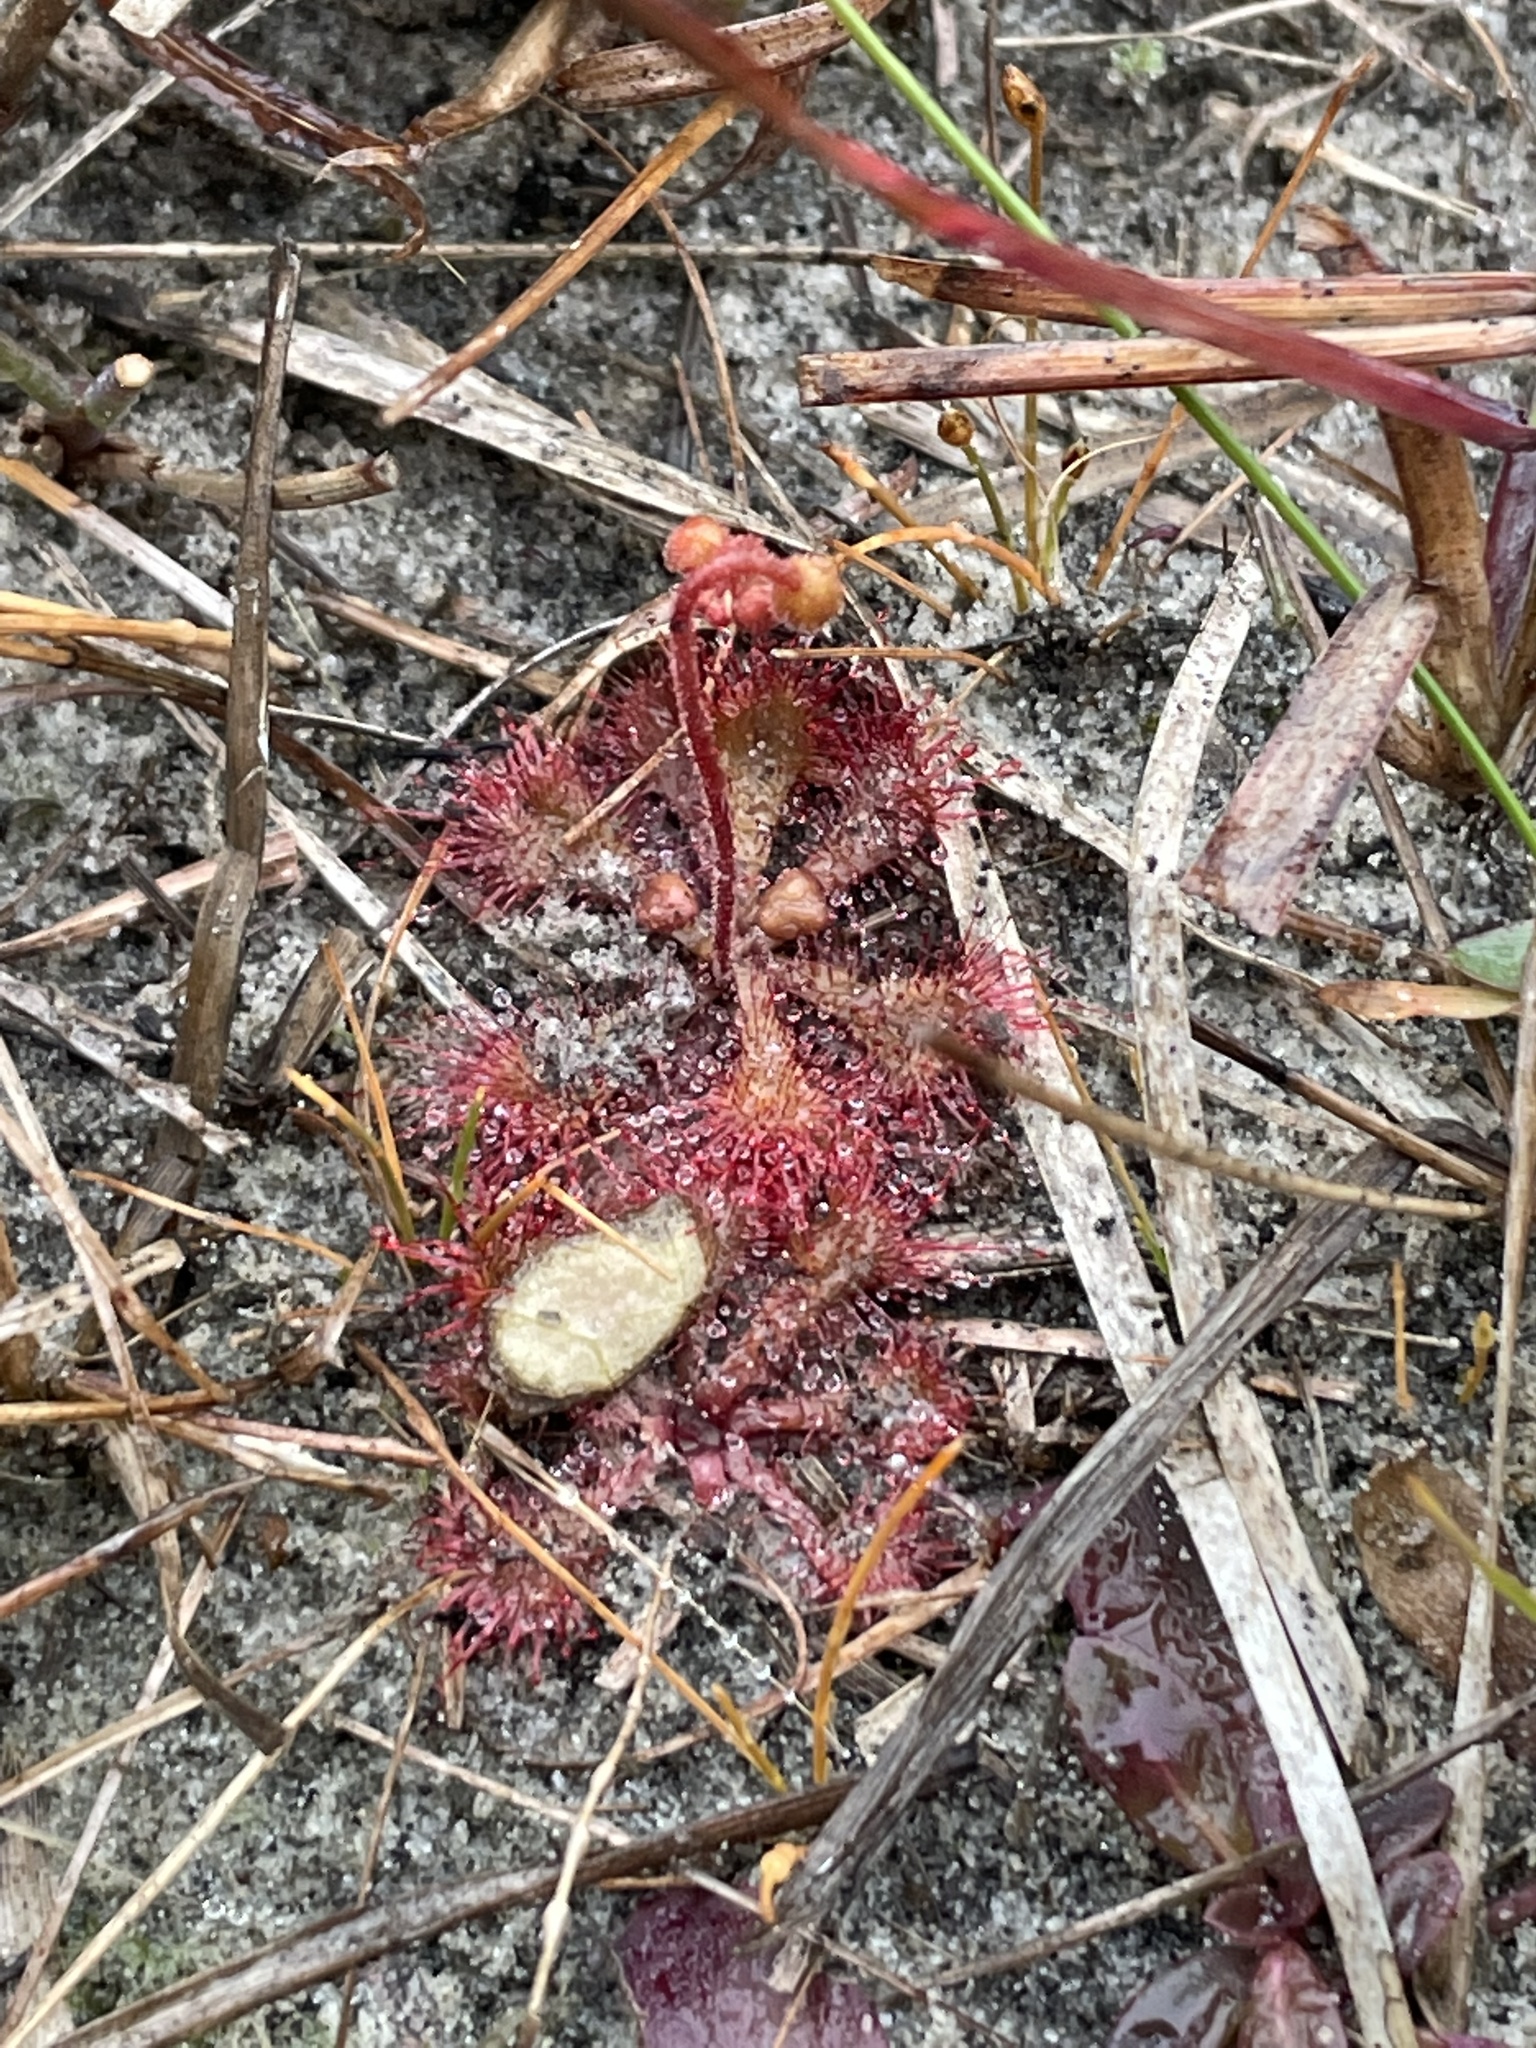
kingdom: Plantae
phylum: Tracheophyta
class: Magnoliopsida
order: Caryophyllales
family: Droseraceae
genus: Drosera
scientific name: Drosera brevifolia
